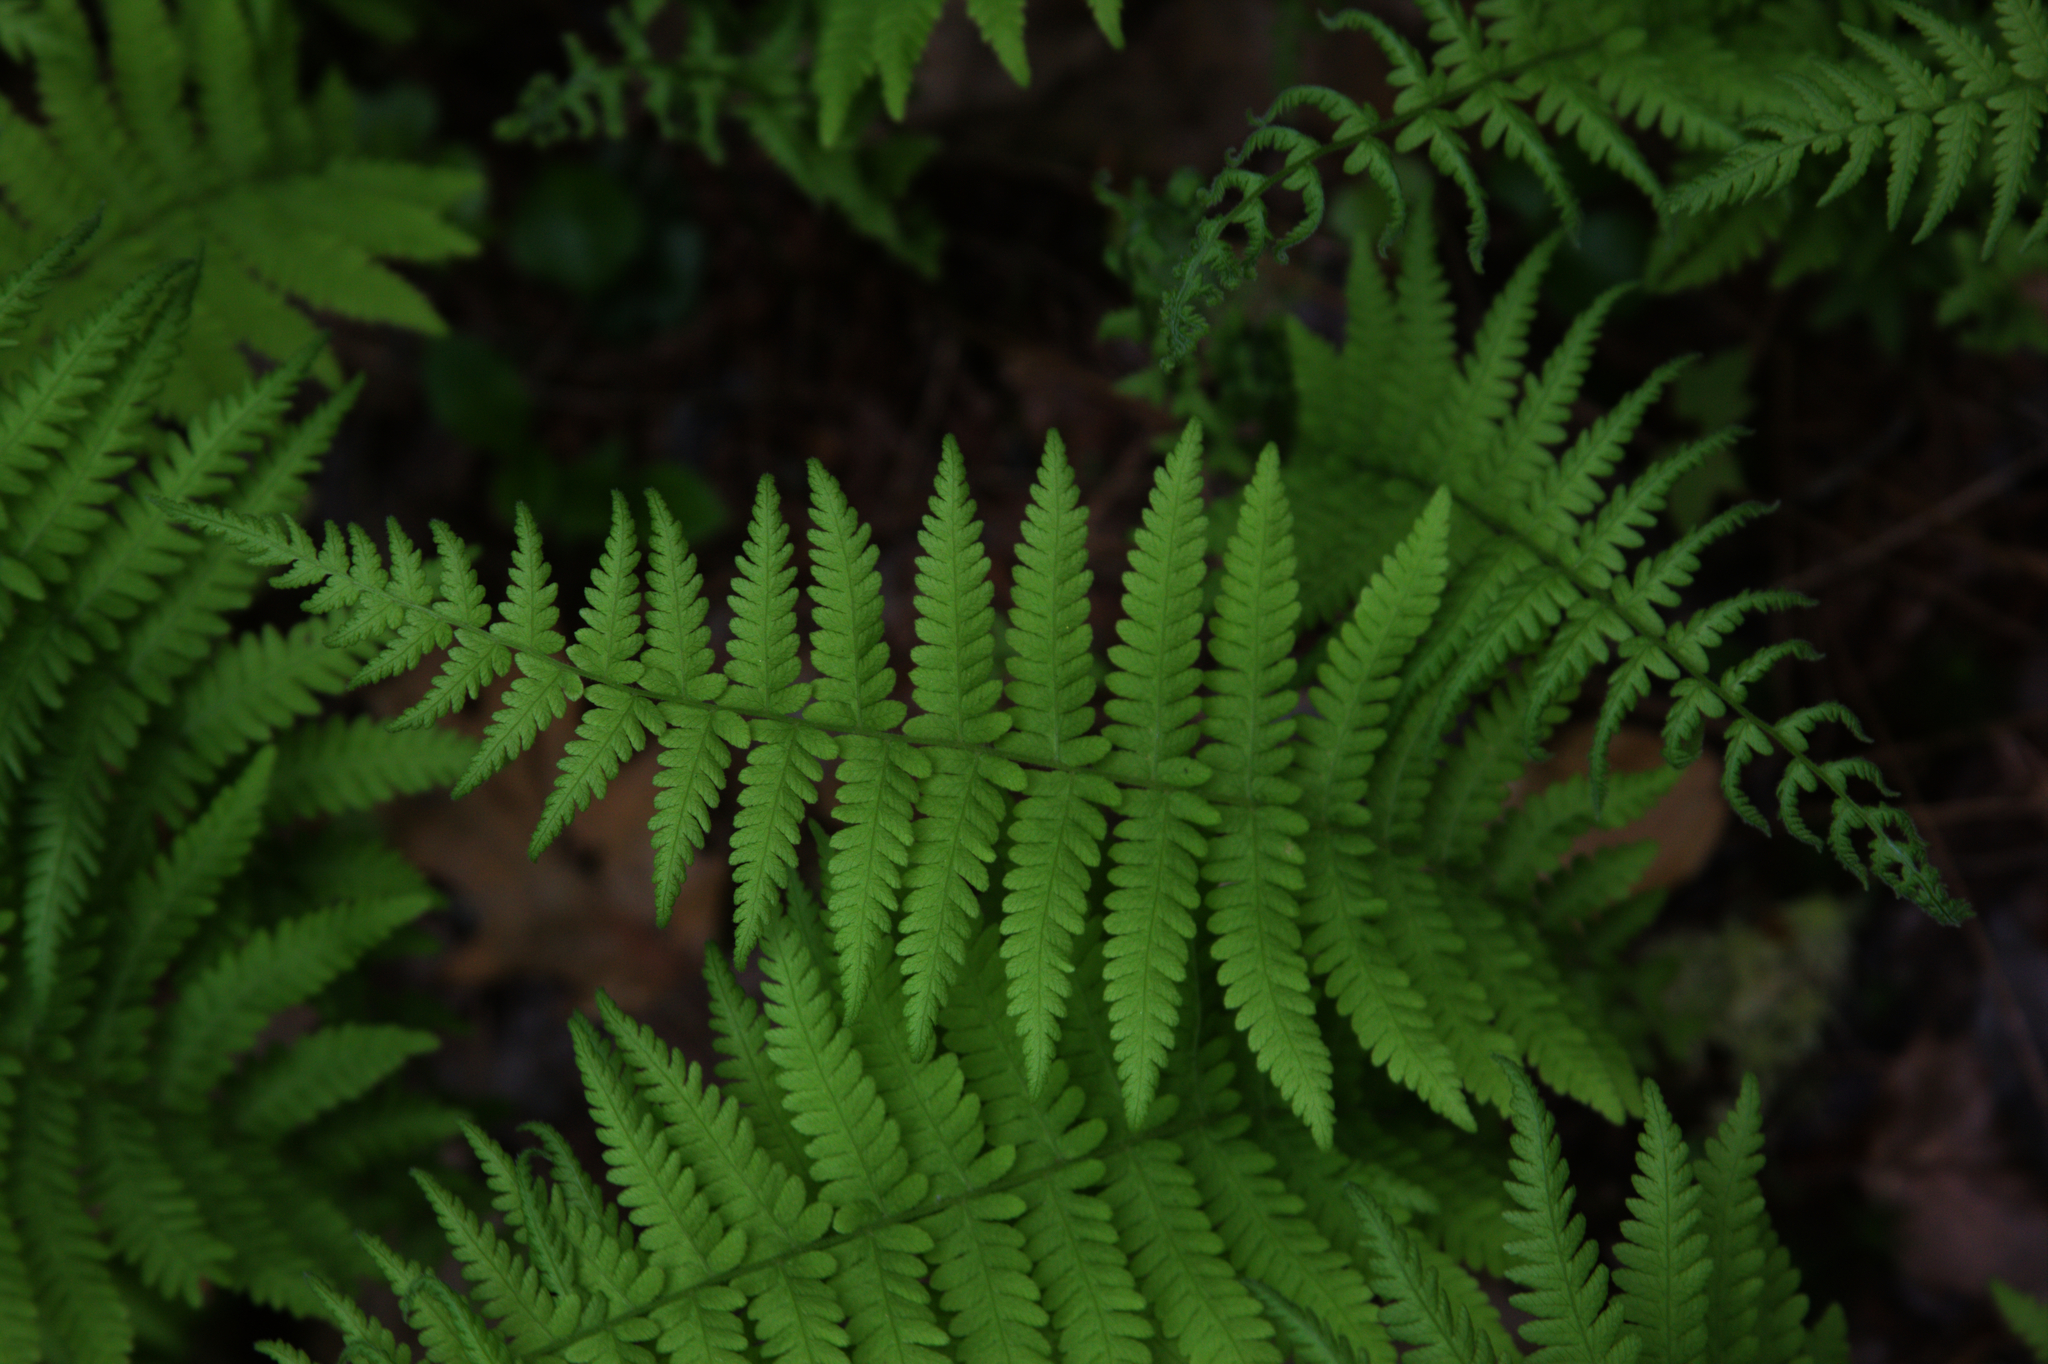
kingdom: Plantae
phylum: Tracheophyta
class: Polypodiopsida
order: Polypodiales
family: Thelypteridaceae
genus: Amauropelta
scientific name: Amauropelta noveboracensis
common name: New york fern
